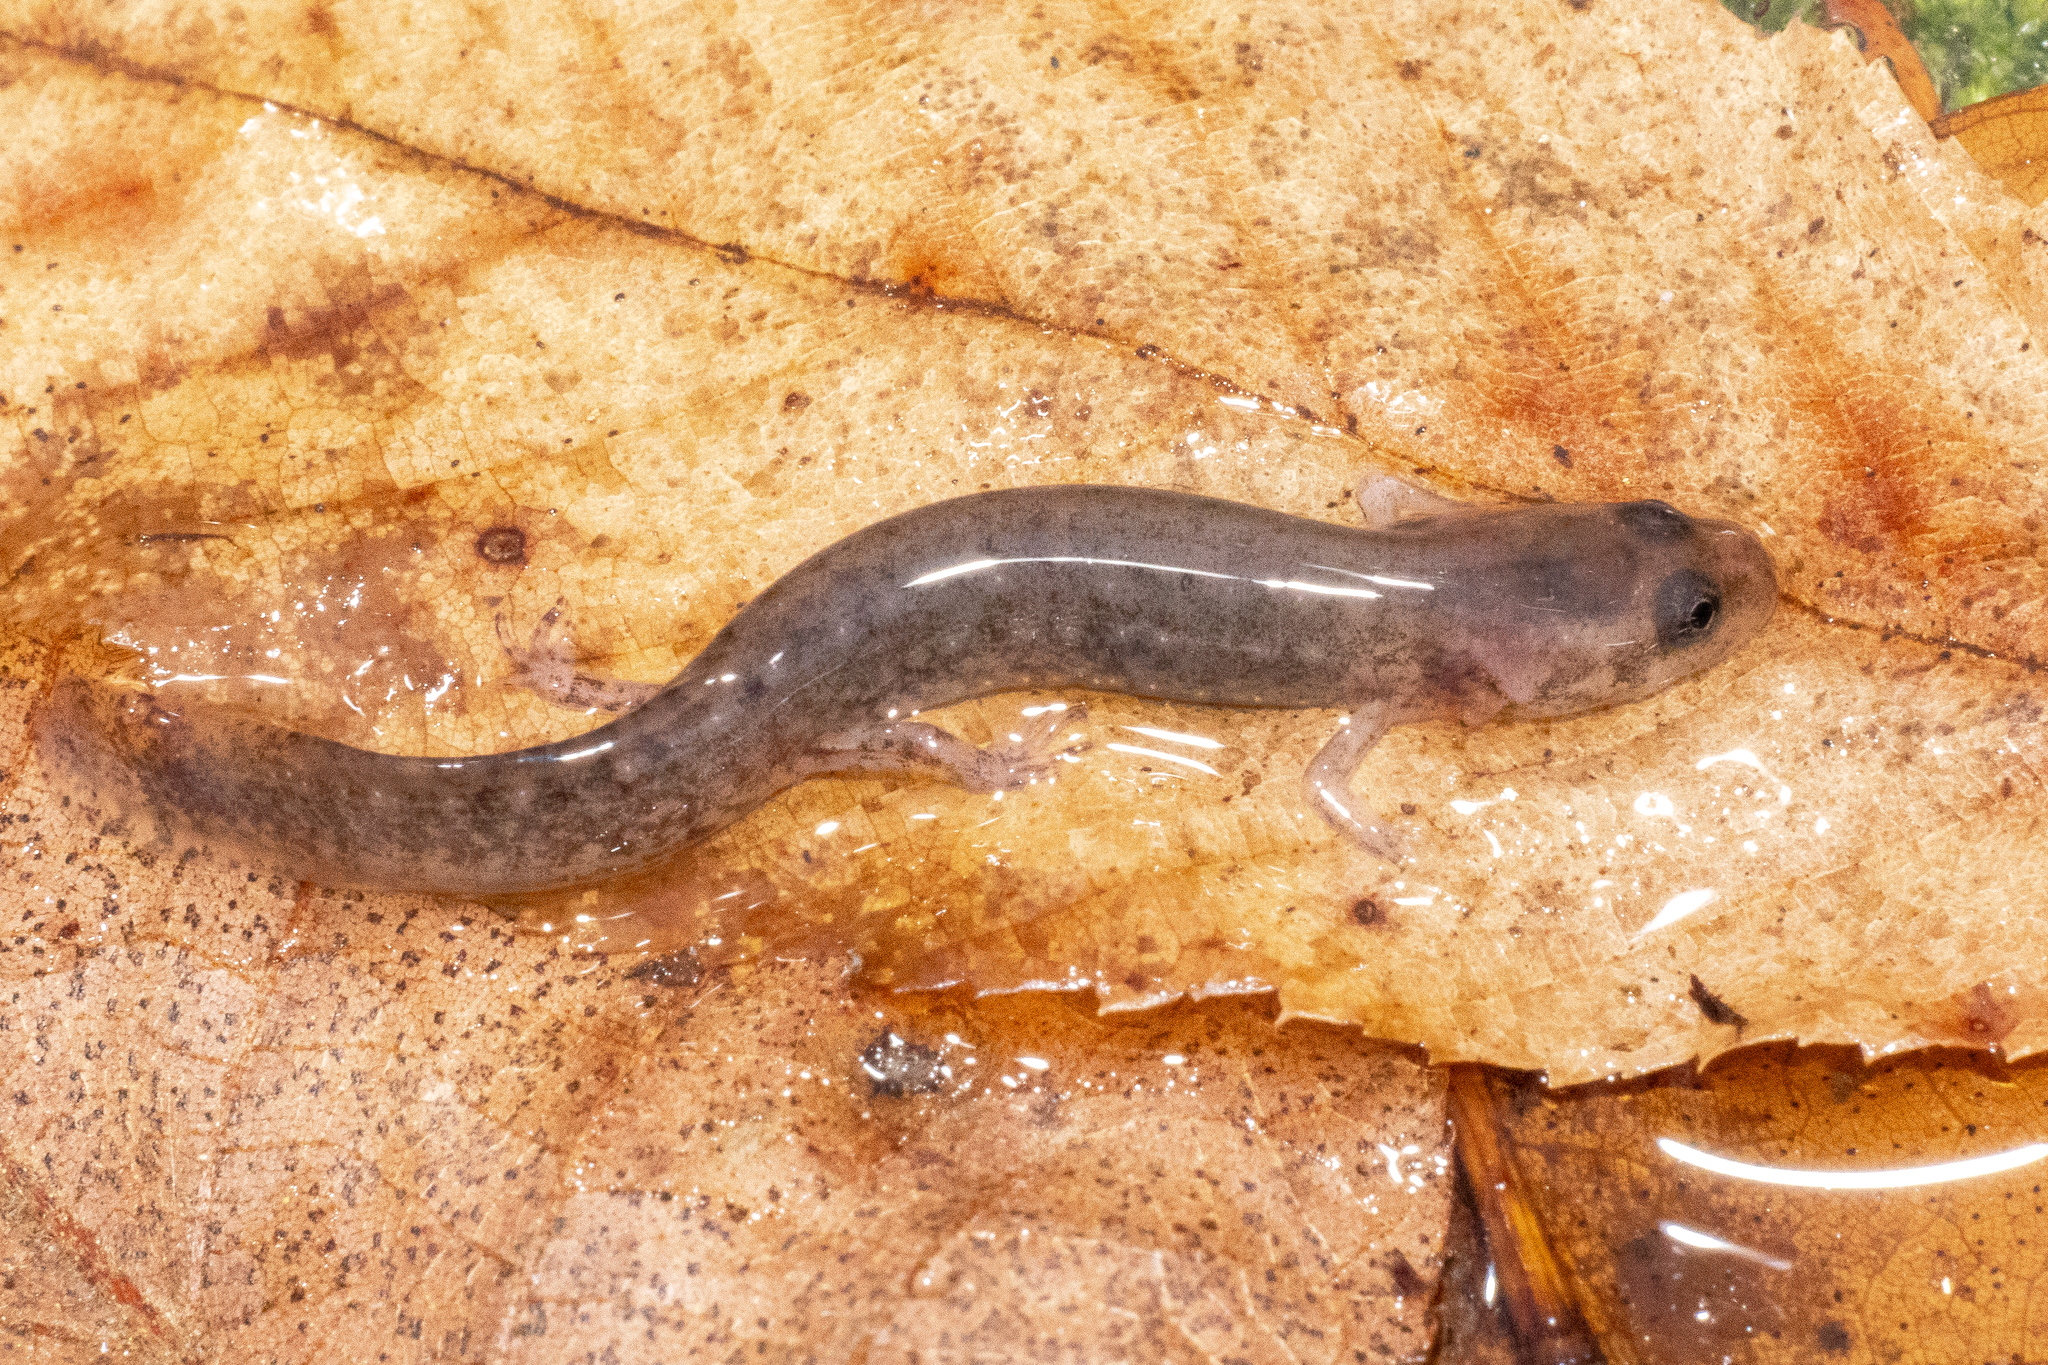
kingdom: Animalia
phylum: Chordata
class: Amphibia
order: Caudata
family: Plethodontidae
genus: Eurycea
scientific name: Eurycea cirrigera
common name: Southern two-lined salamander
